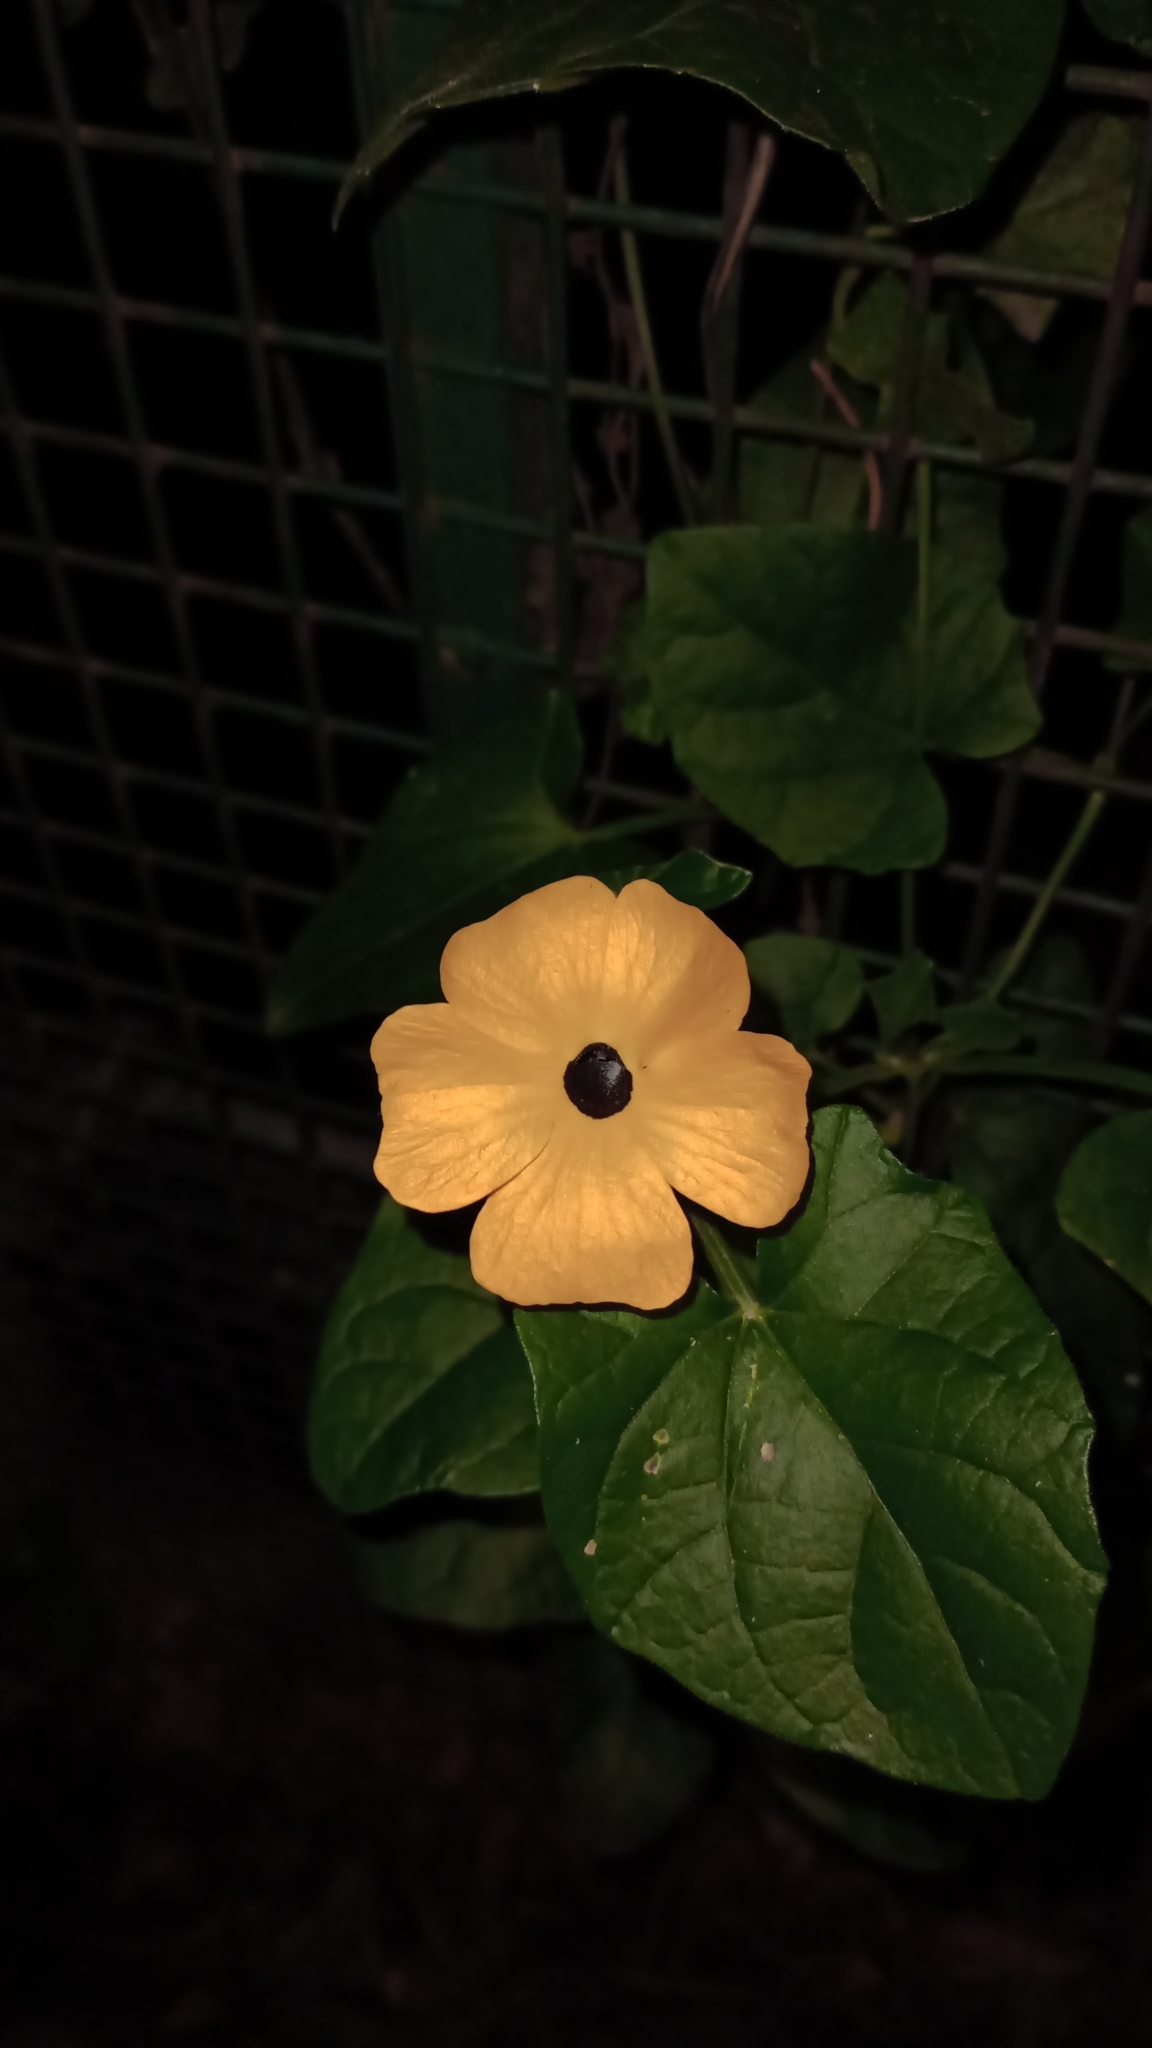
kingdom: Plantae
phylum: Tracheophyta
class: Magnoliopsida
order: Lamiales
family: Acanthaceae
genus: Thunbergia
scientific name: Thunbergia alata
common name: Blackeyed susan vine
